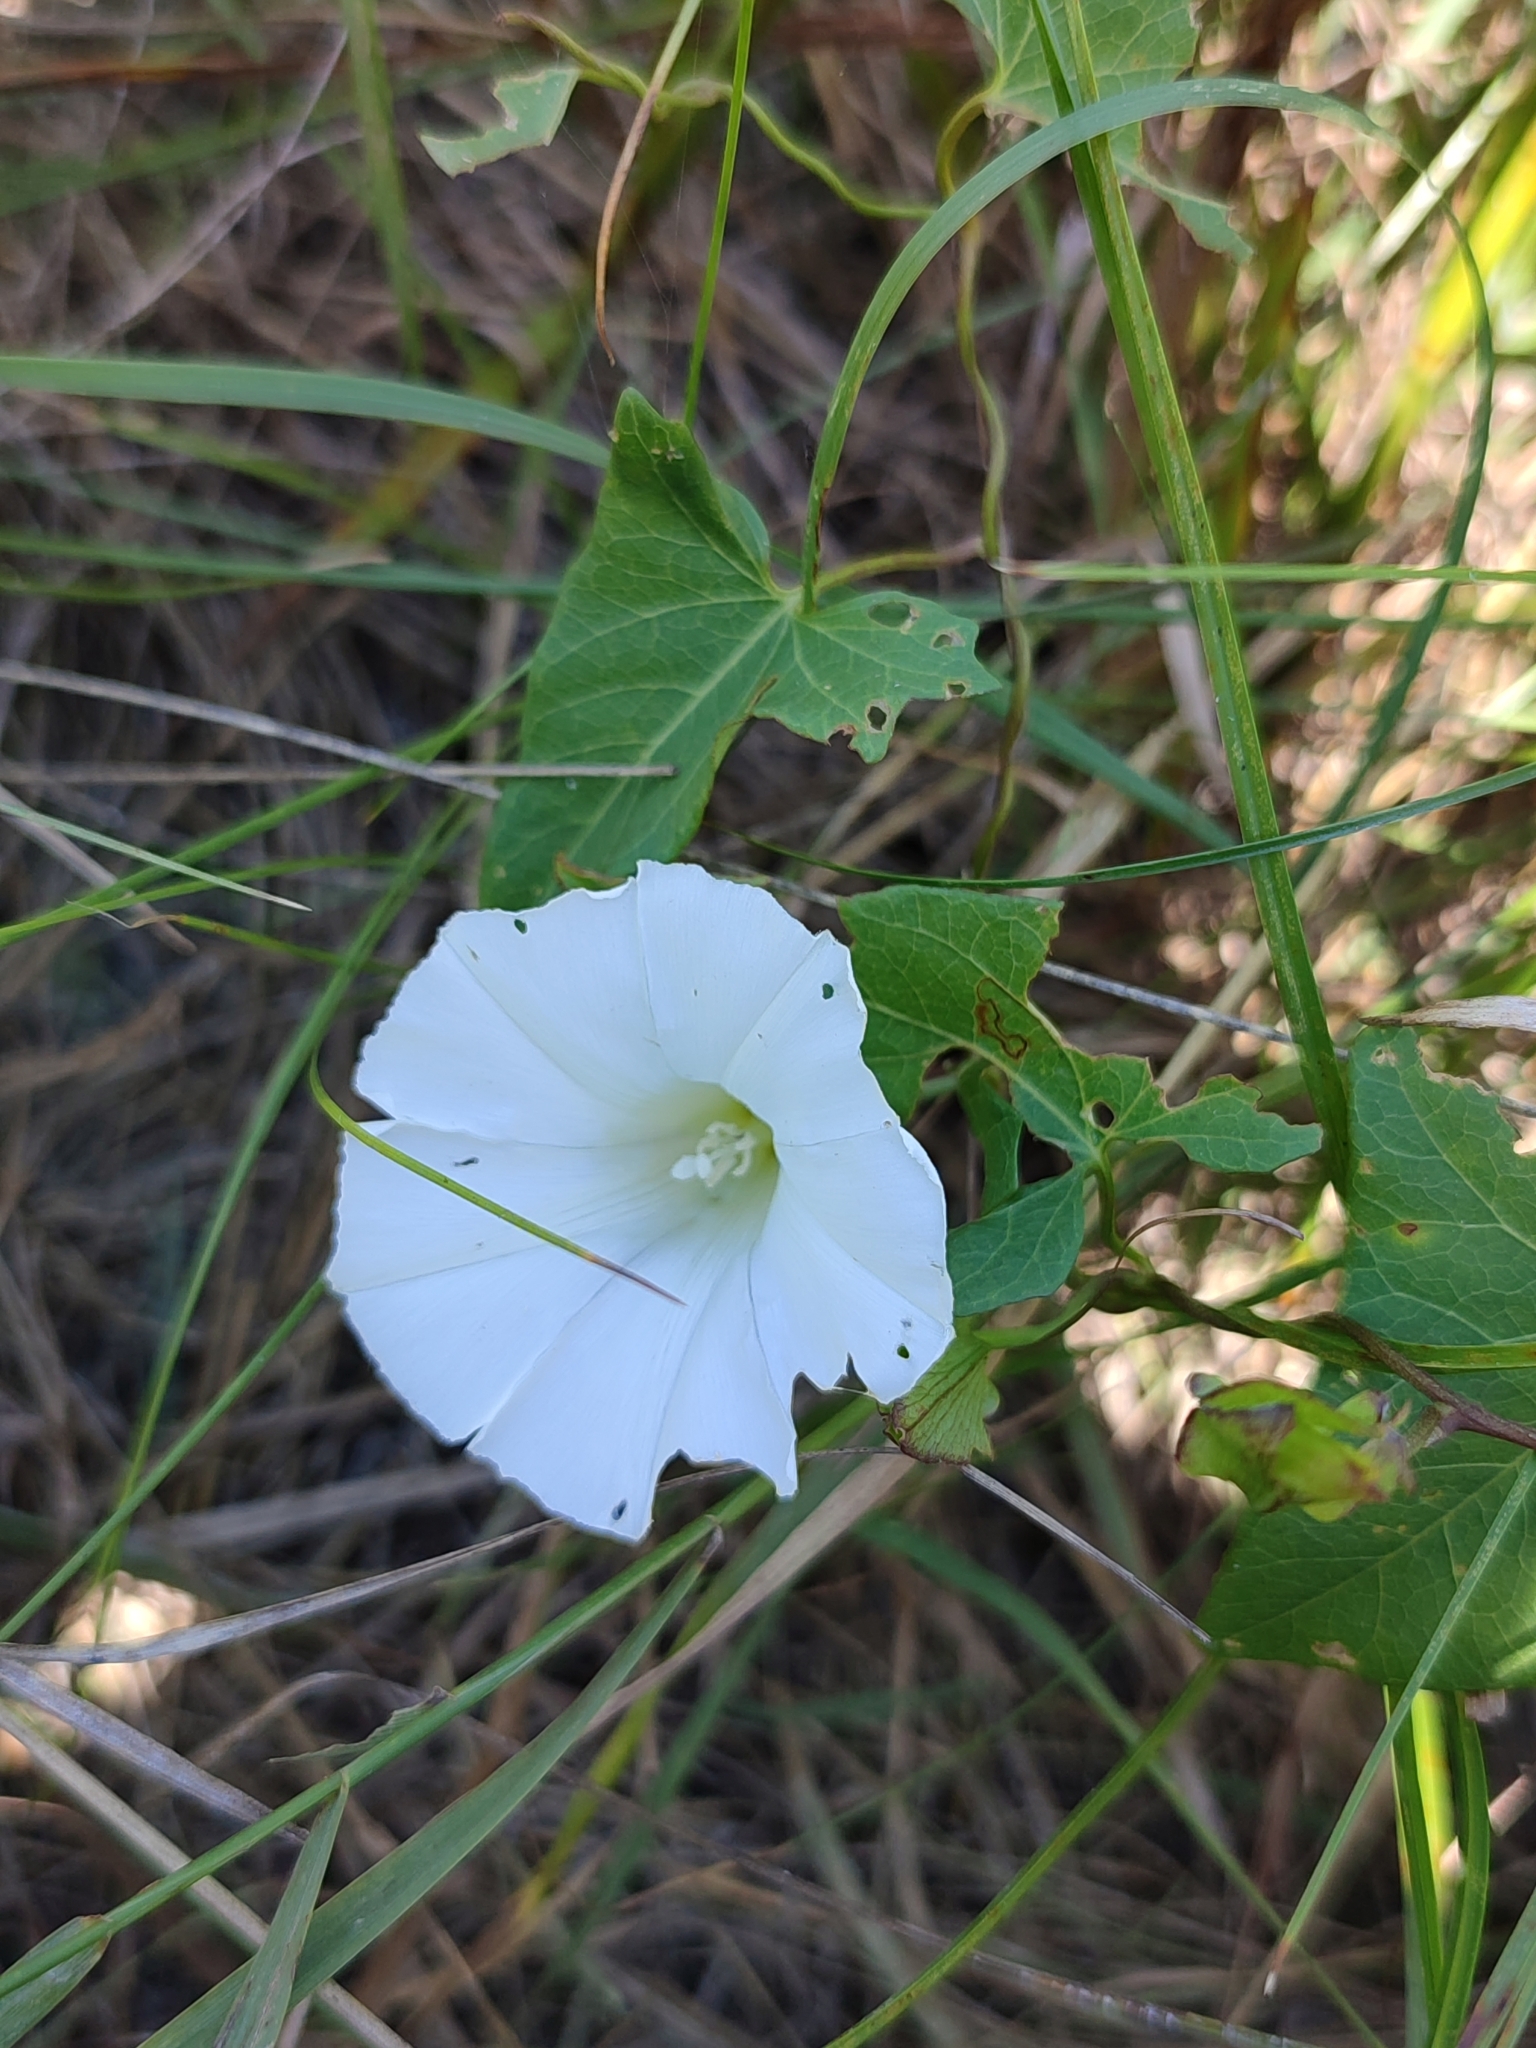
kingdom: Plantae
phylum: Tracheophyta
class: Magnoliopsida
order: Solanales
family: Convolvulaceae
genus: Calystegia
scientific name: Calystegia sepium
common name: Hedge bindweed
